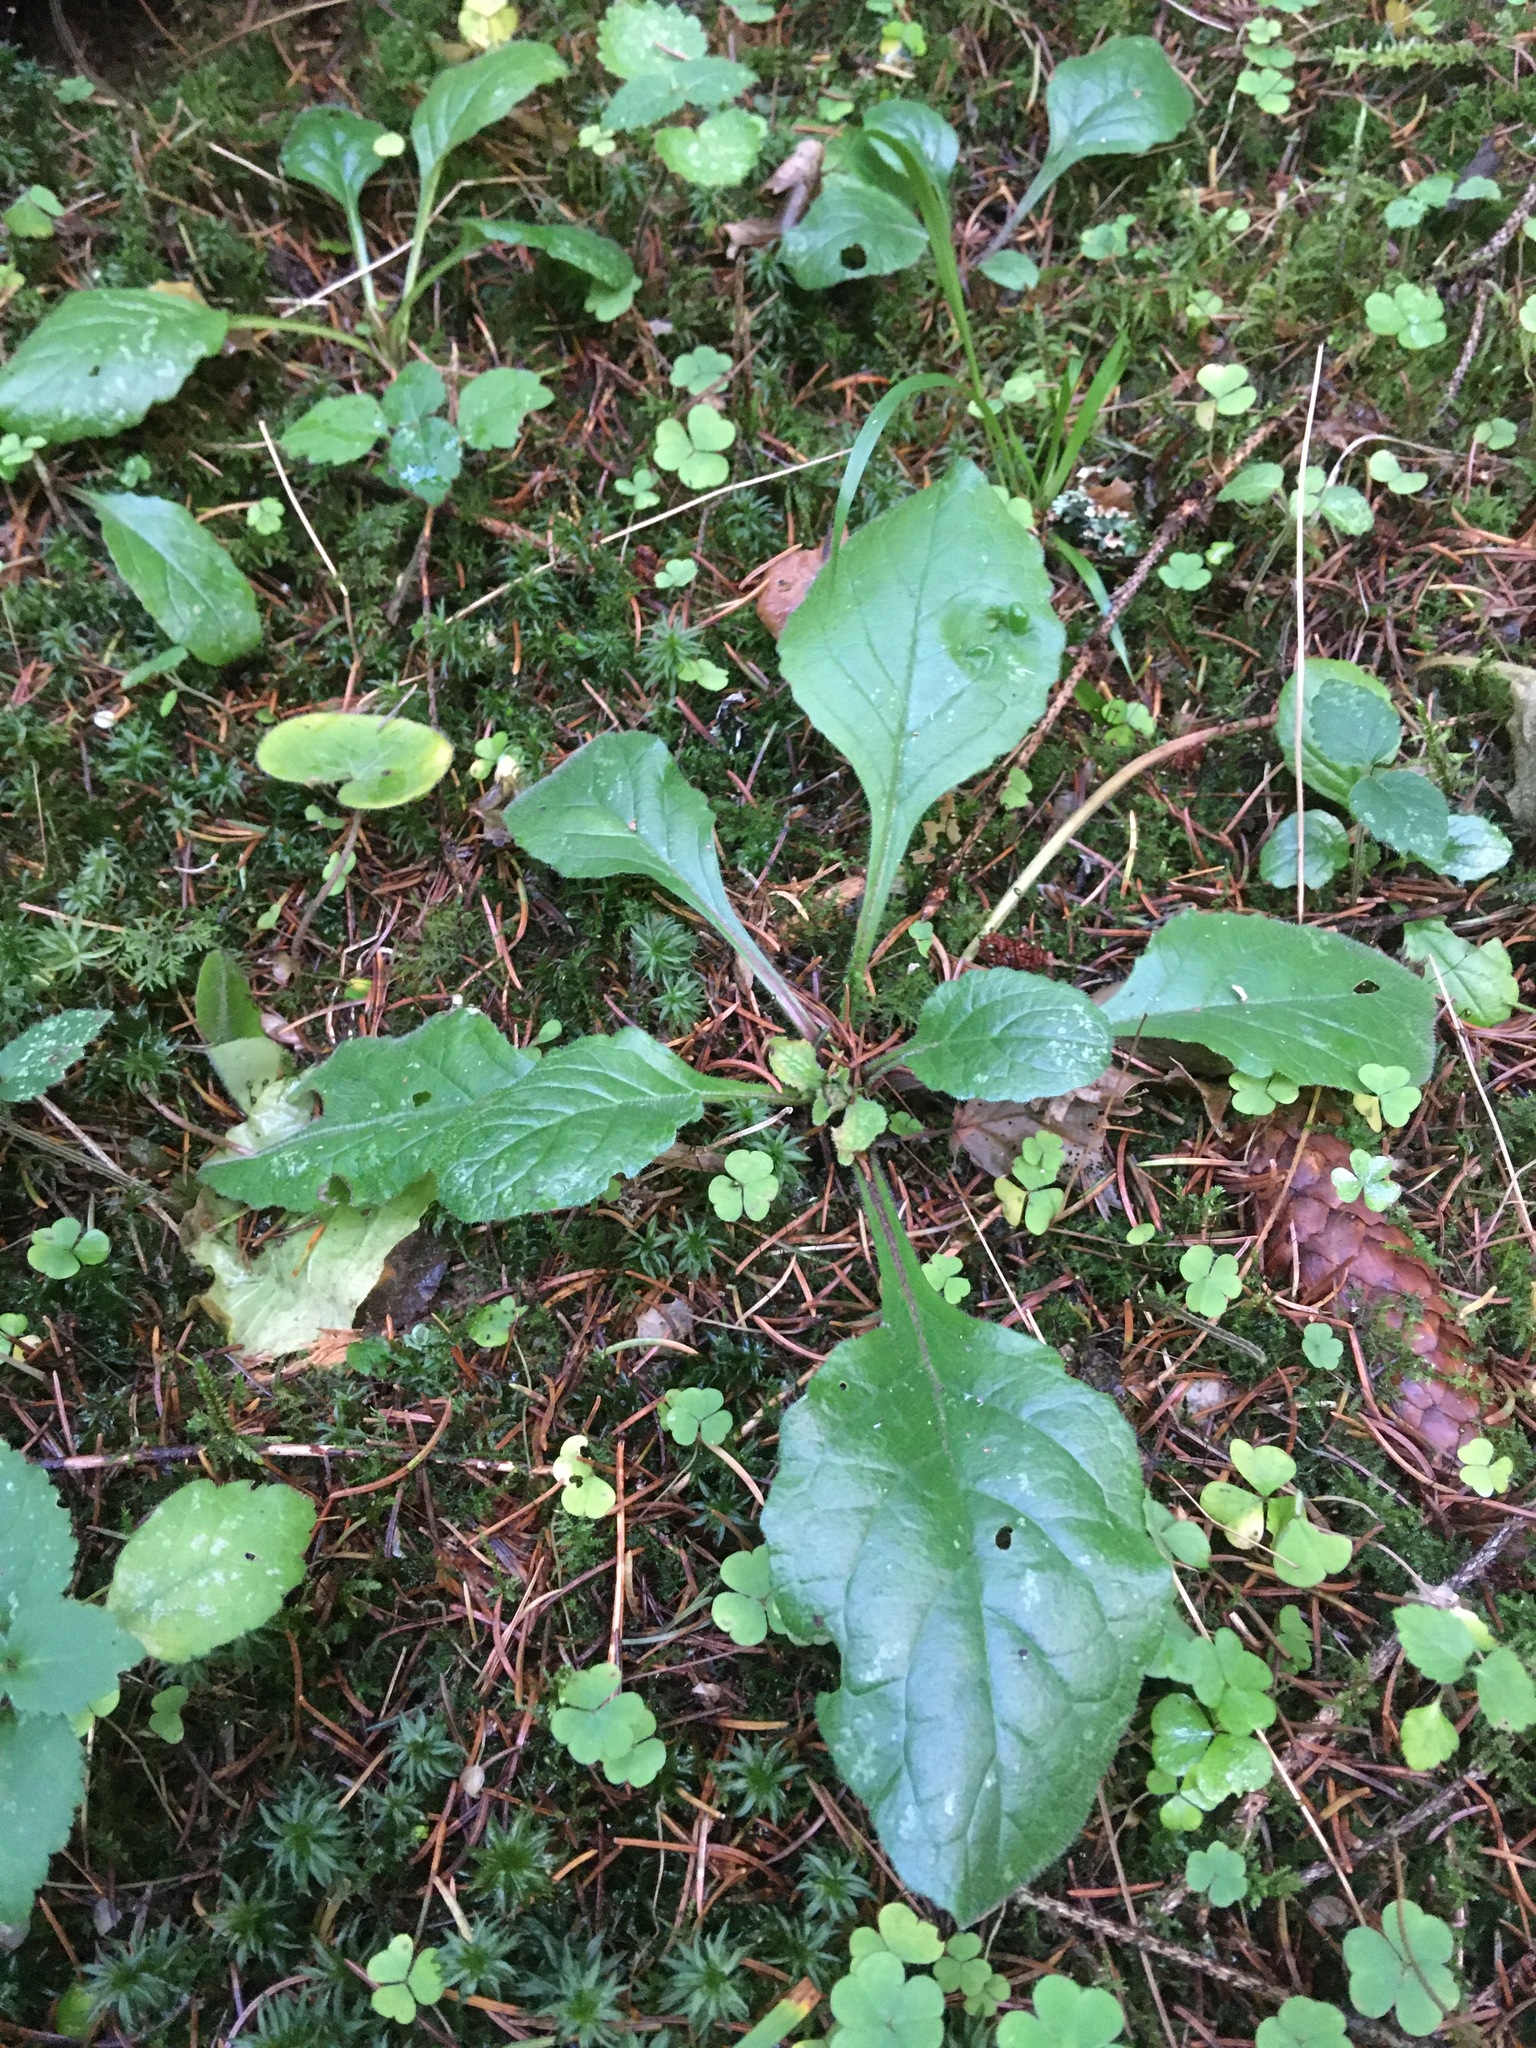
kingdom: Plantae
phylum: Tracheophyta
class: Magnoliopsida
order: Lamiales
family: Lamiaceae
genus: Ajuga
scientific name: Ajuga reptans
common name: Bugle
